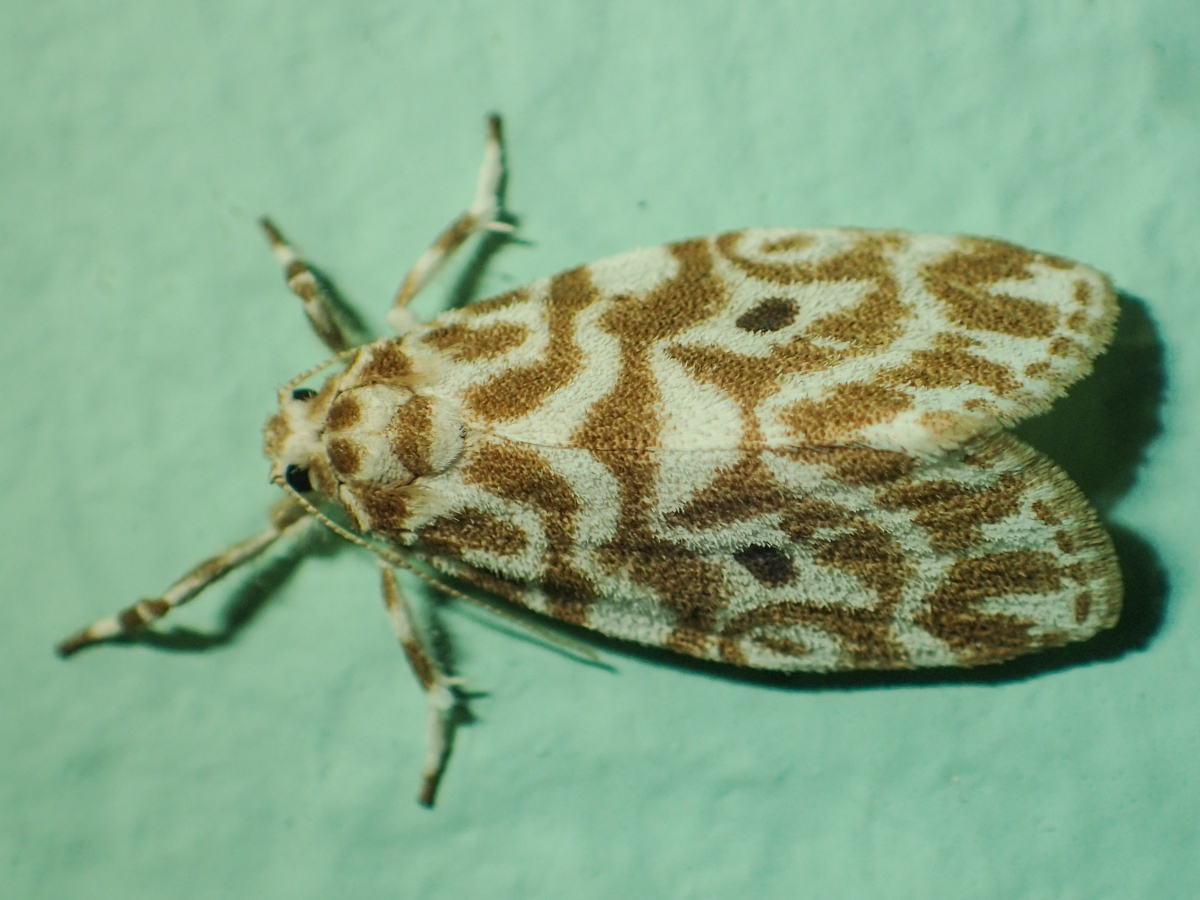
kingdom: Animalia
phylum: Arthropoda
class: Insecta
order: Lepidoptera
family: Erebidae
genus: Cabarda
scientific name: Cabarda nigripuncta
